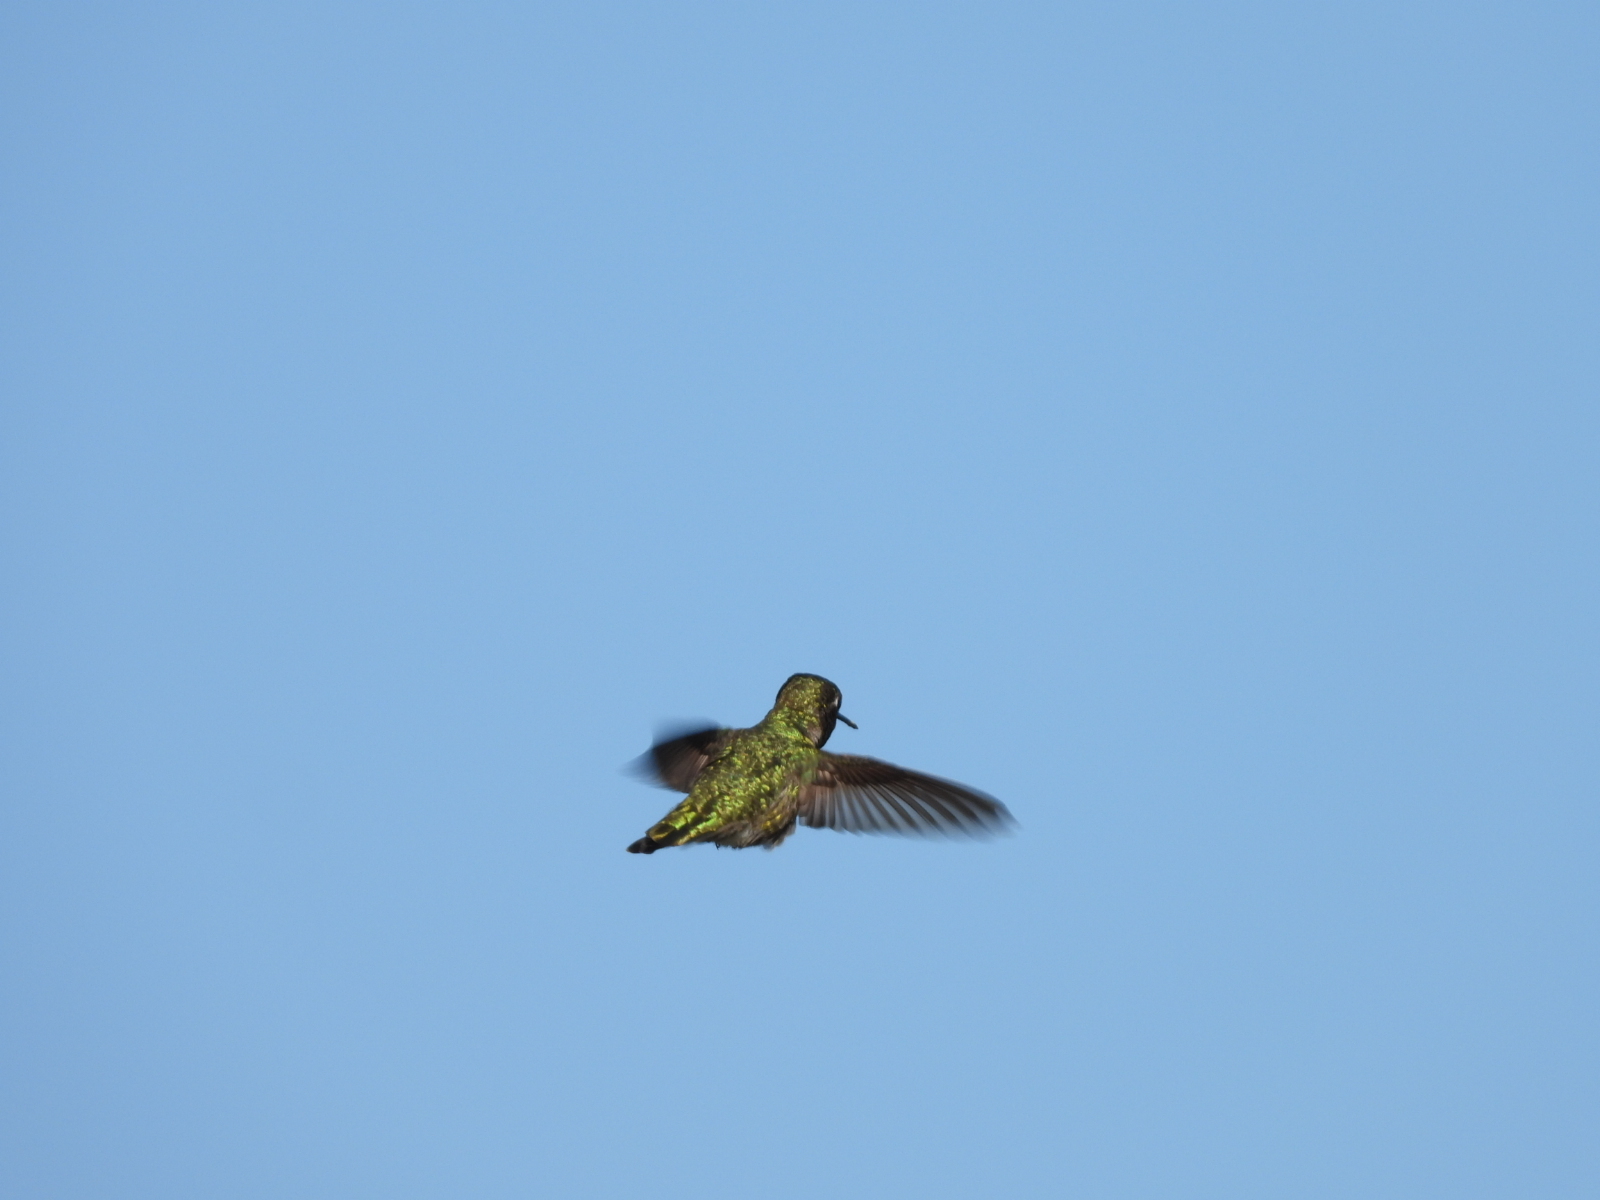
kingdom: Animalia
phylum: Chordata
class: Aves
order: Apodiformes
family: Trochilidae
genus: Calypte
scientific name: Calypte anna
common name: Anna's hummingbird
